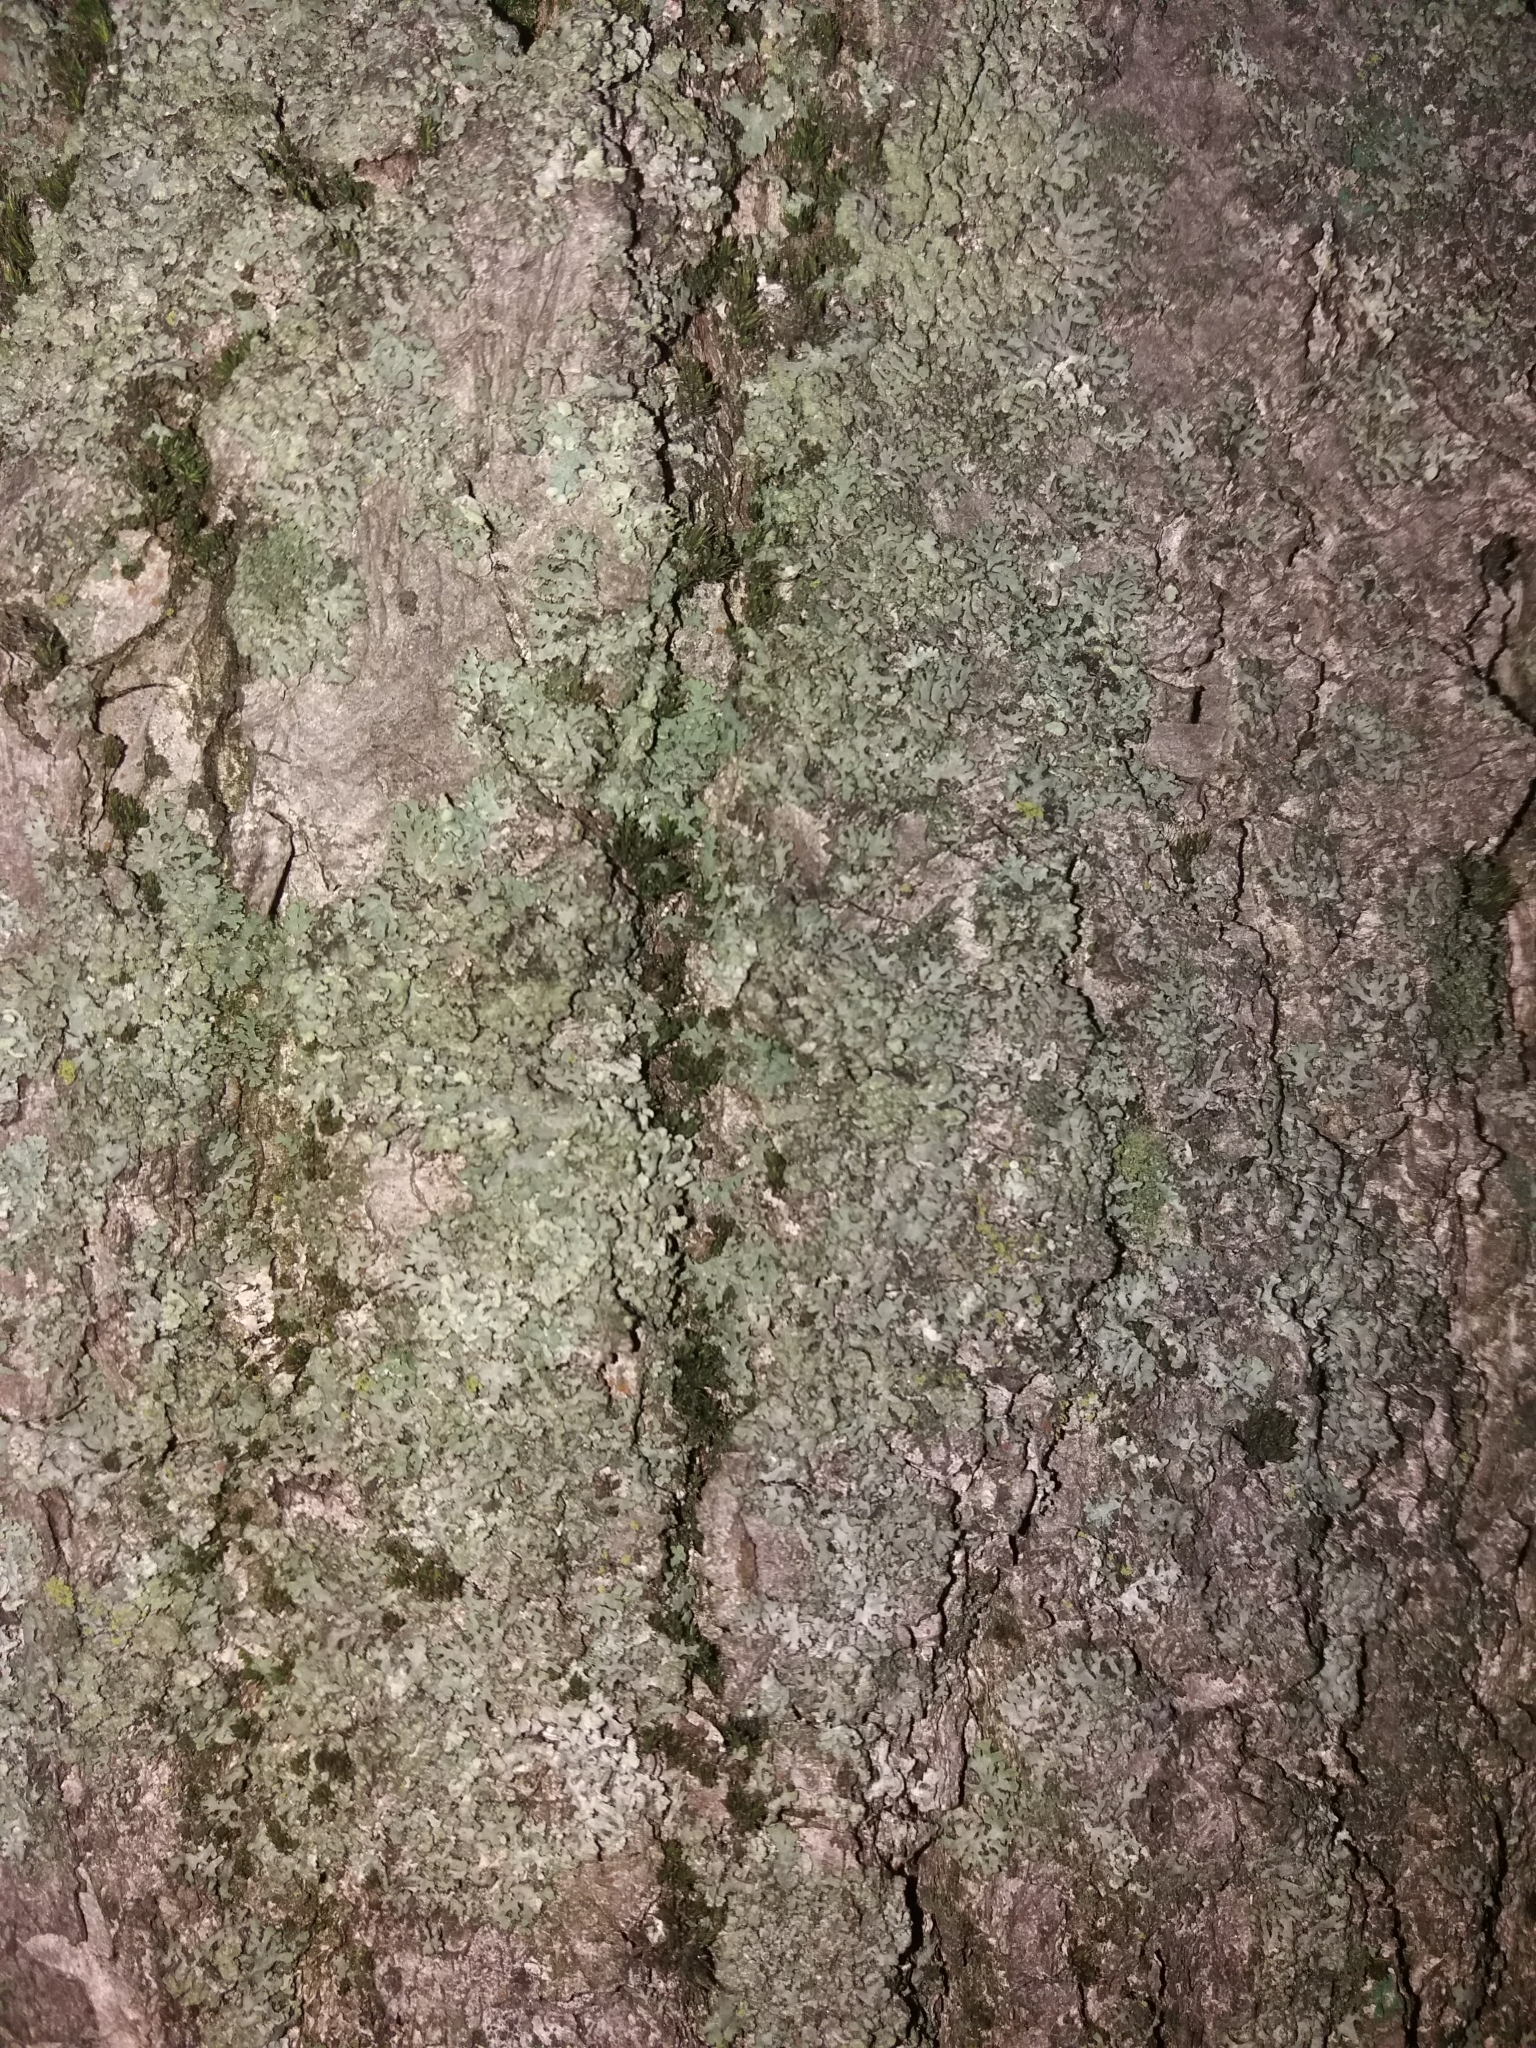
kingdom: Fungi
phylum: Ascomycota
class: Lecanoromycetes
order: Caliciales
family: Physciaceae
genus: Phaeophyscia
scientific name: Phaeophyscia orbicularis
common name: Mealy shadow lichen
